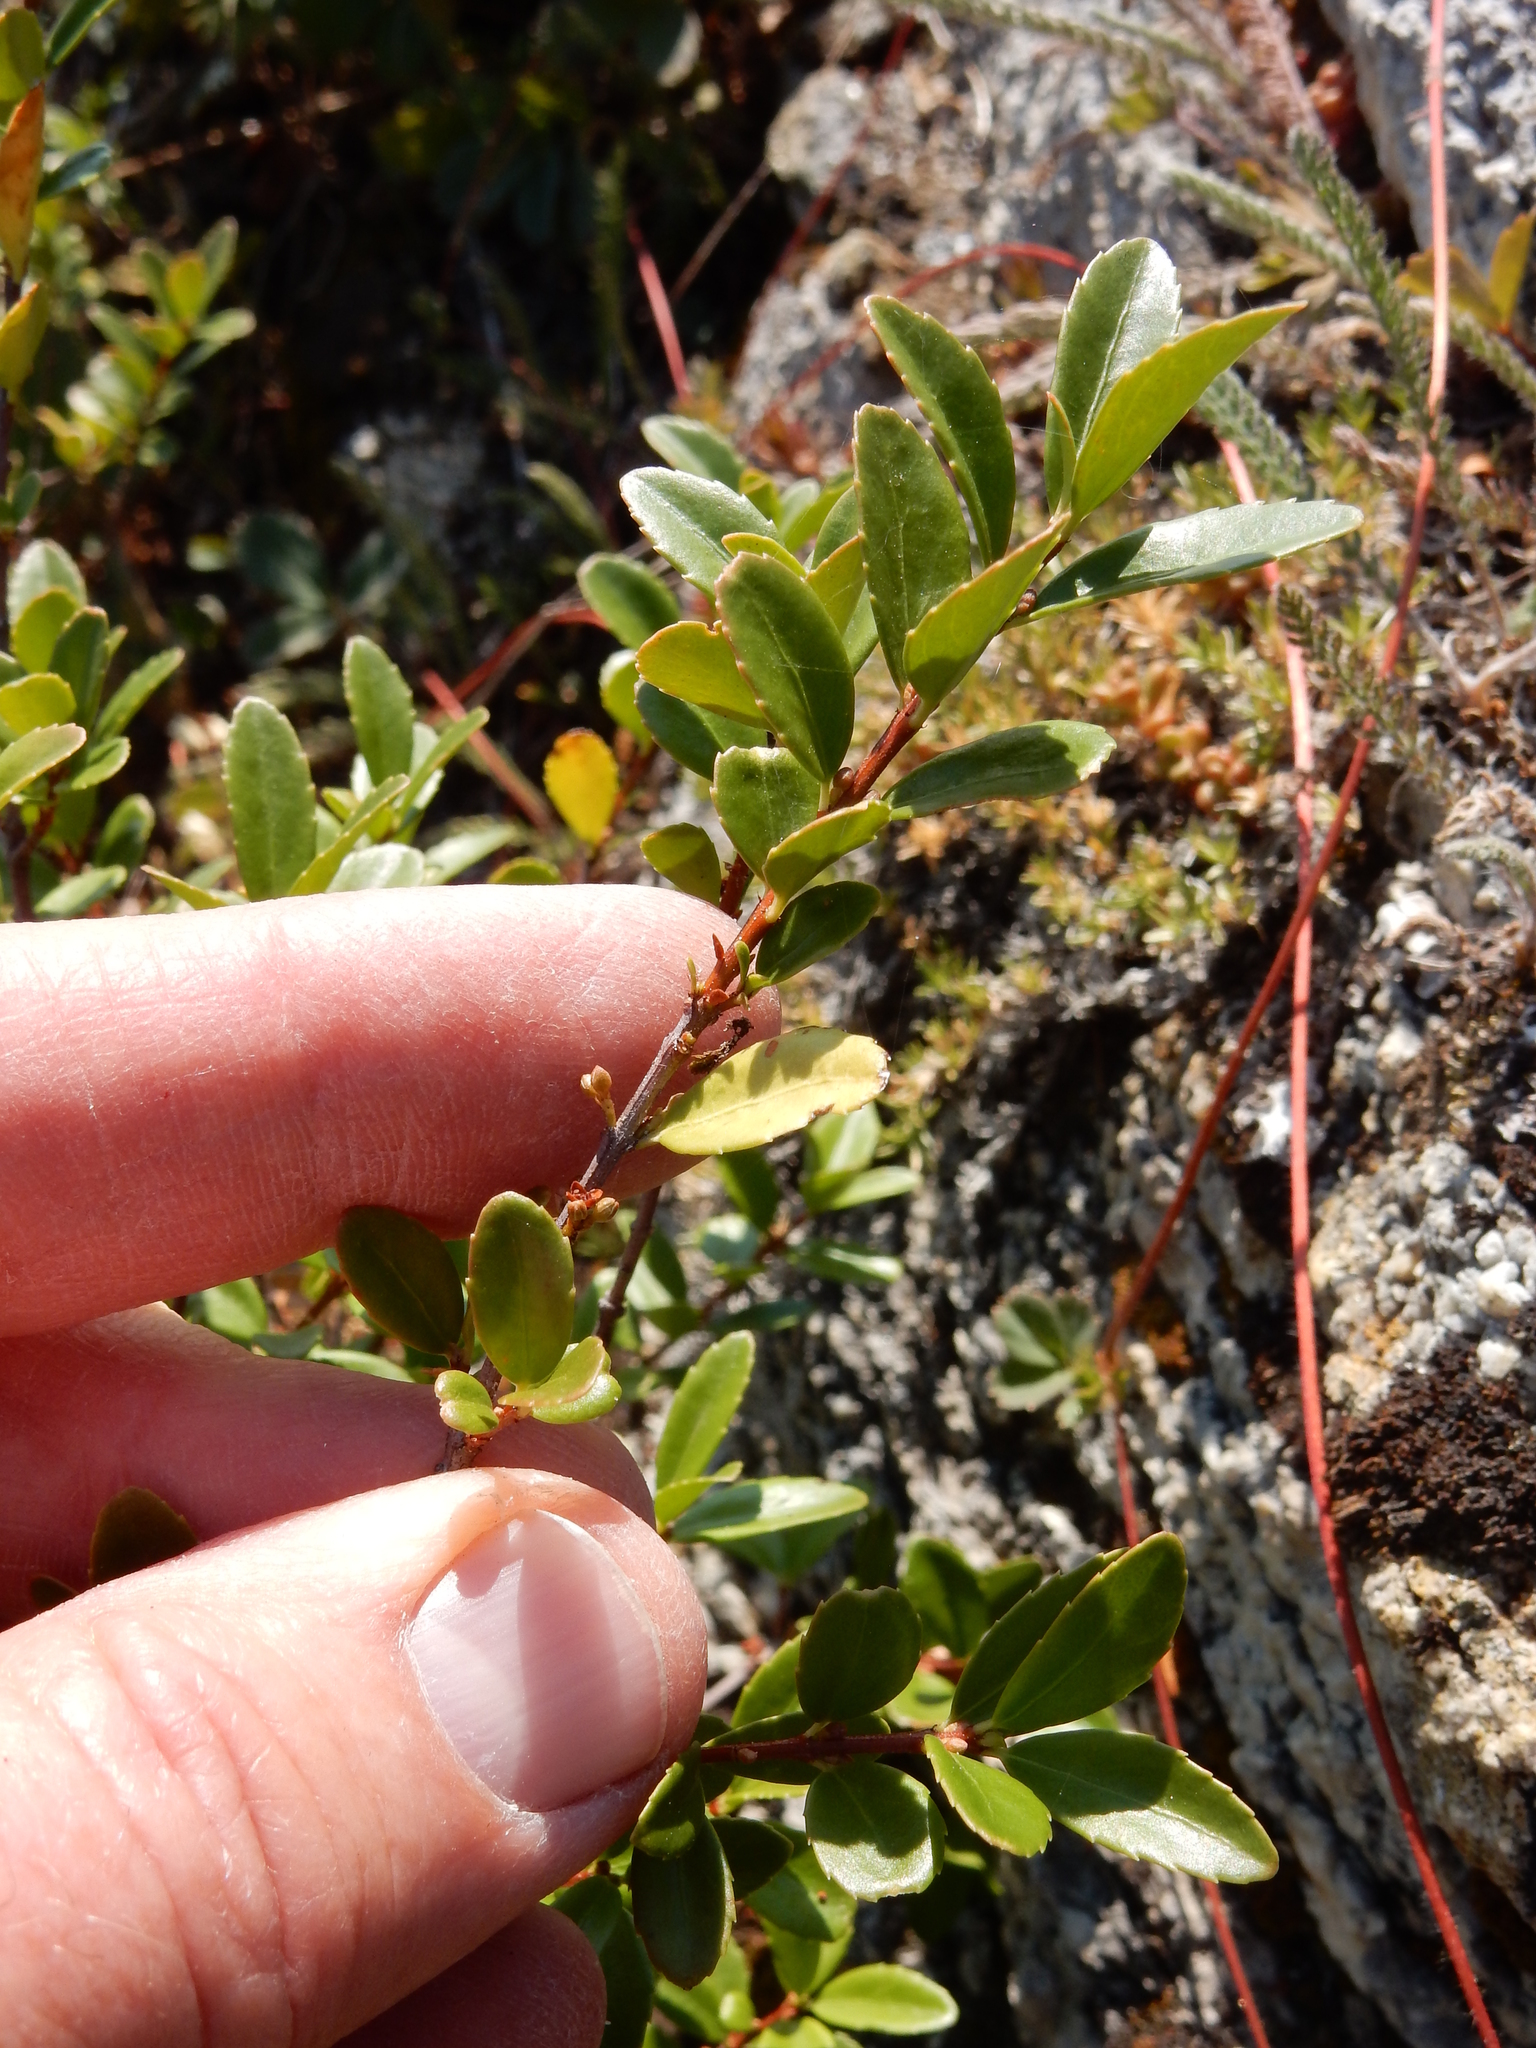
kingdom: Plantae
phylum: Tracheophyta
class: Magnoliopsida
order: Celastrales
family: Celastraceae
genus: Paxistima
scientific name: Paxistima myrsinites
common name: Mountain-lover
